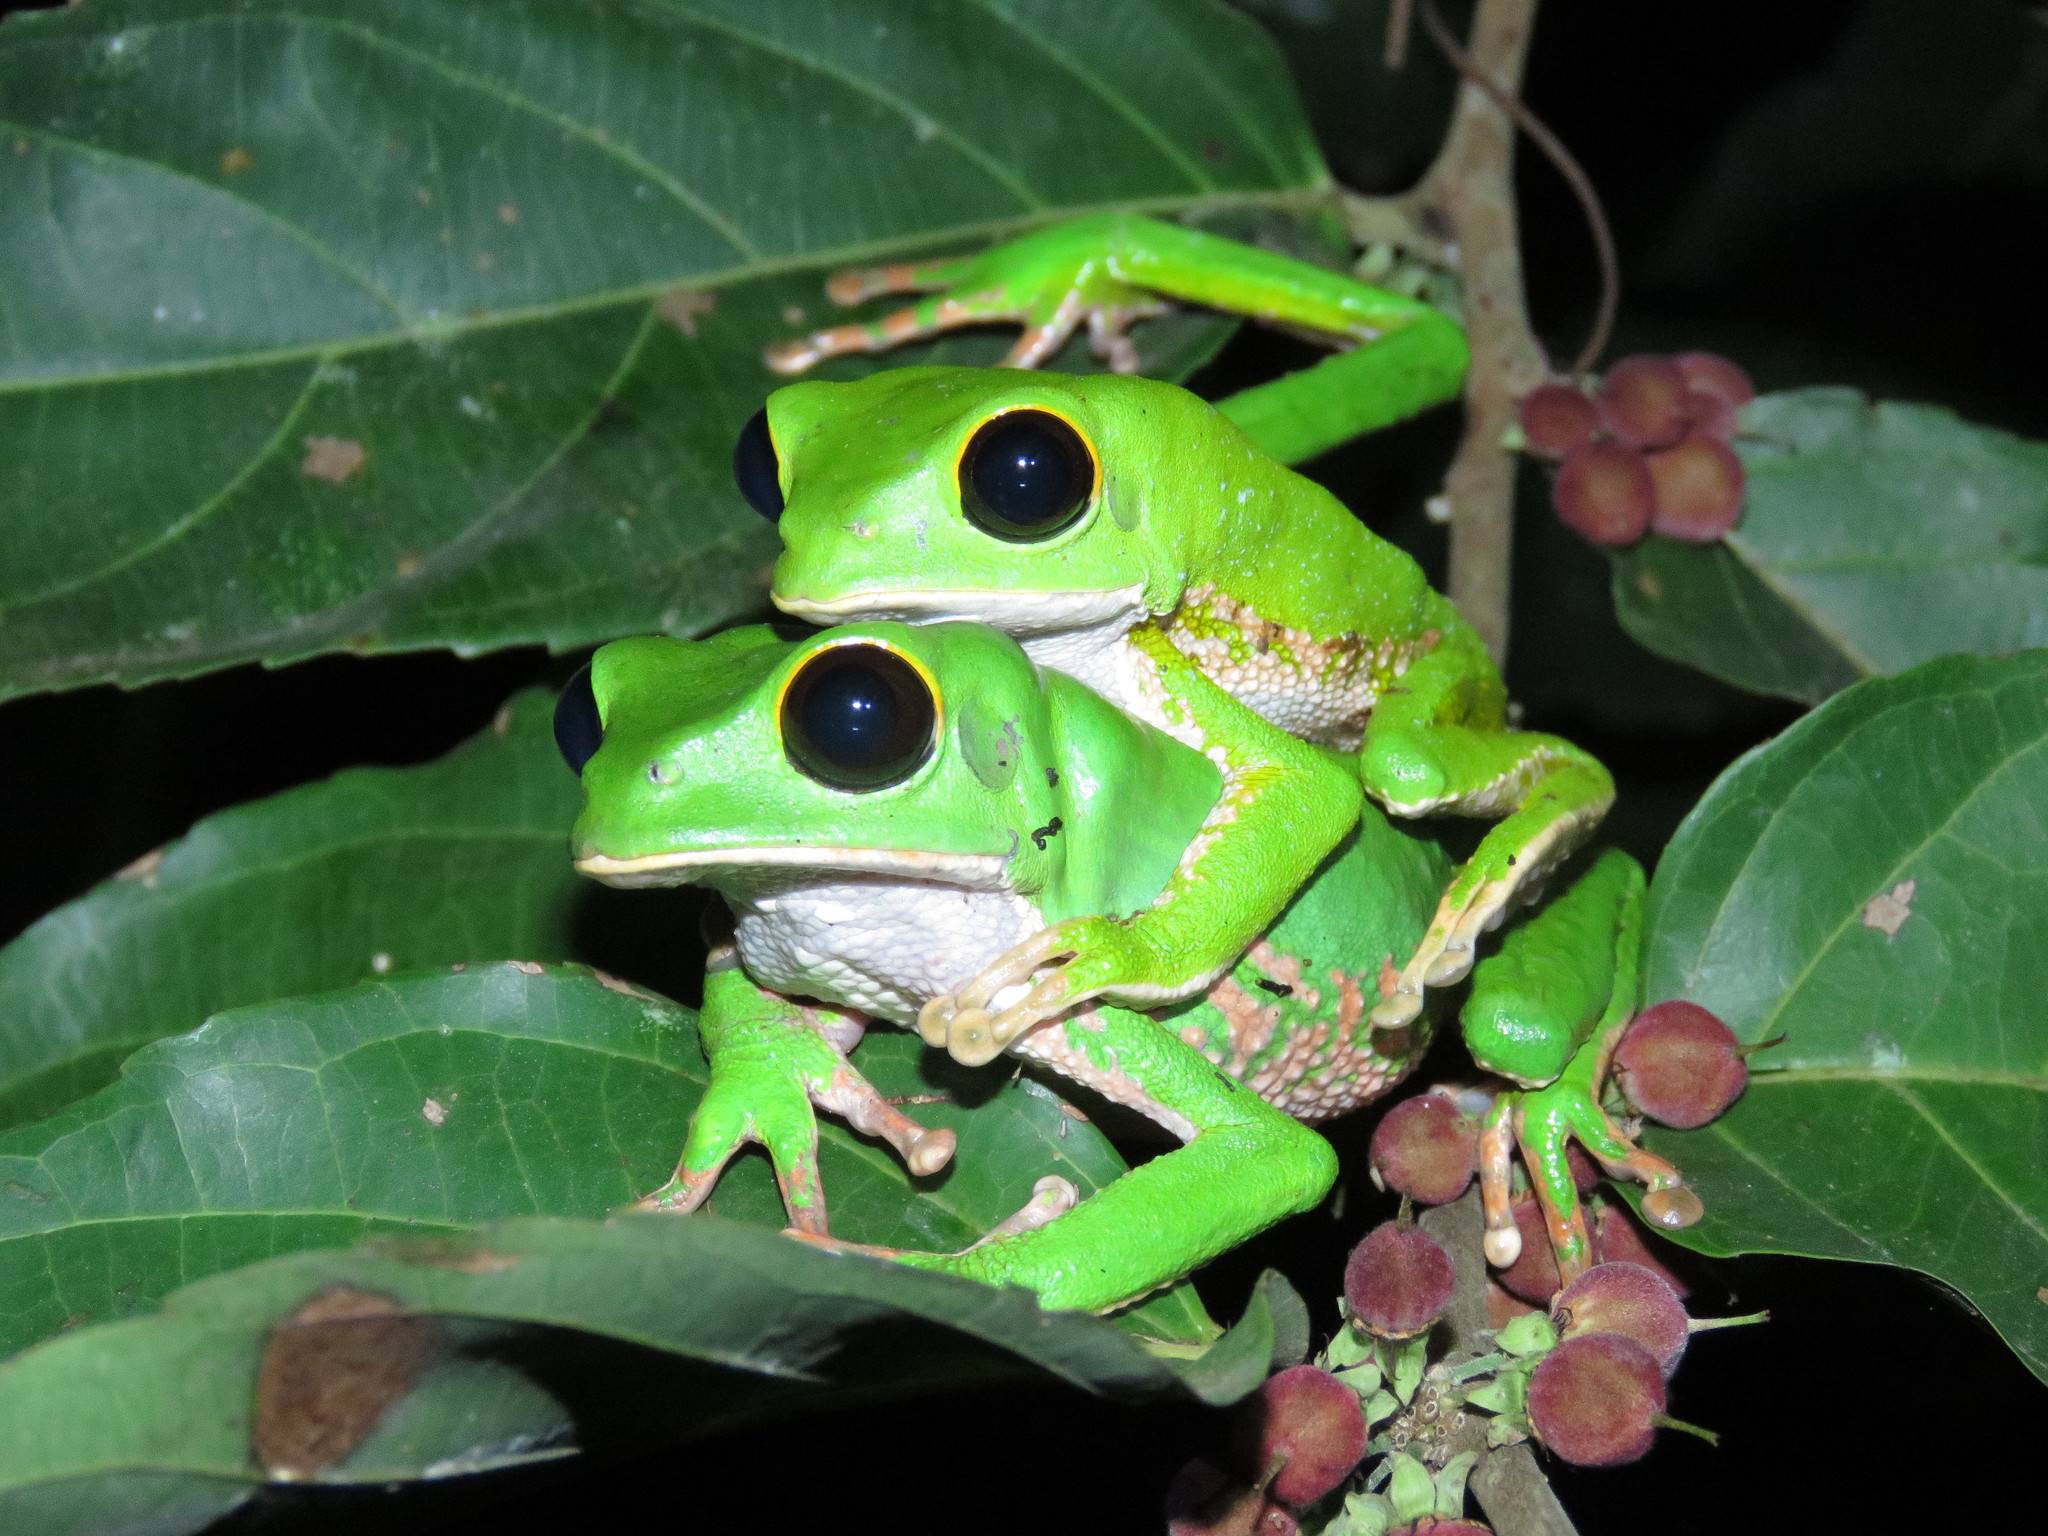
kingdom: Animalia
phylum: Chordata
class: Amphibia
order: Anura
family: Phyllomedusidae
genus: Phyllomedusa
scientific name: Phyllomedusa camba
